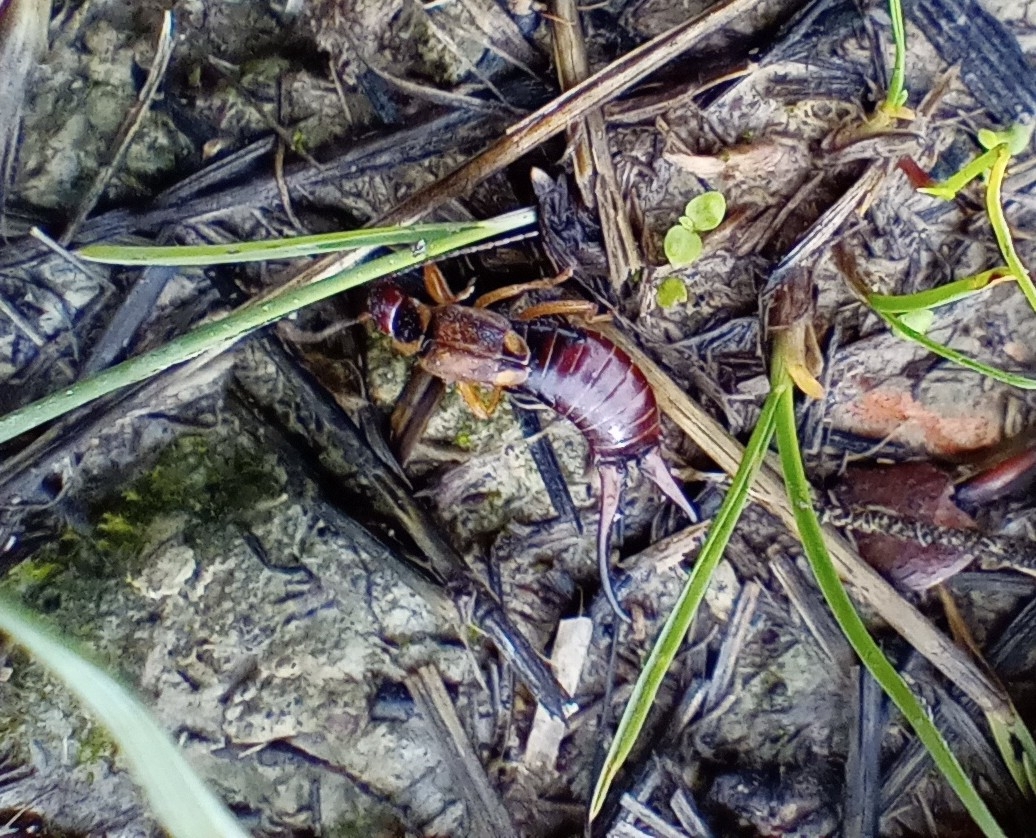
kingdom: Animalia
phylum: Arthropoda
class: Insecta
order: Dermaptera
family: Forficulidae
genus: Forficula
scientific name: Forficula auricularia
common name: European earwig
